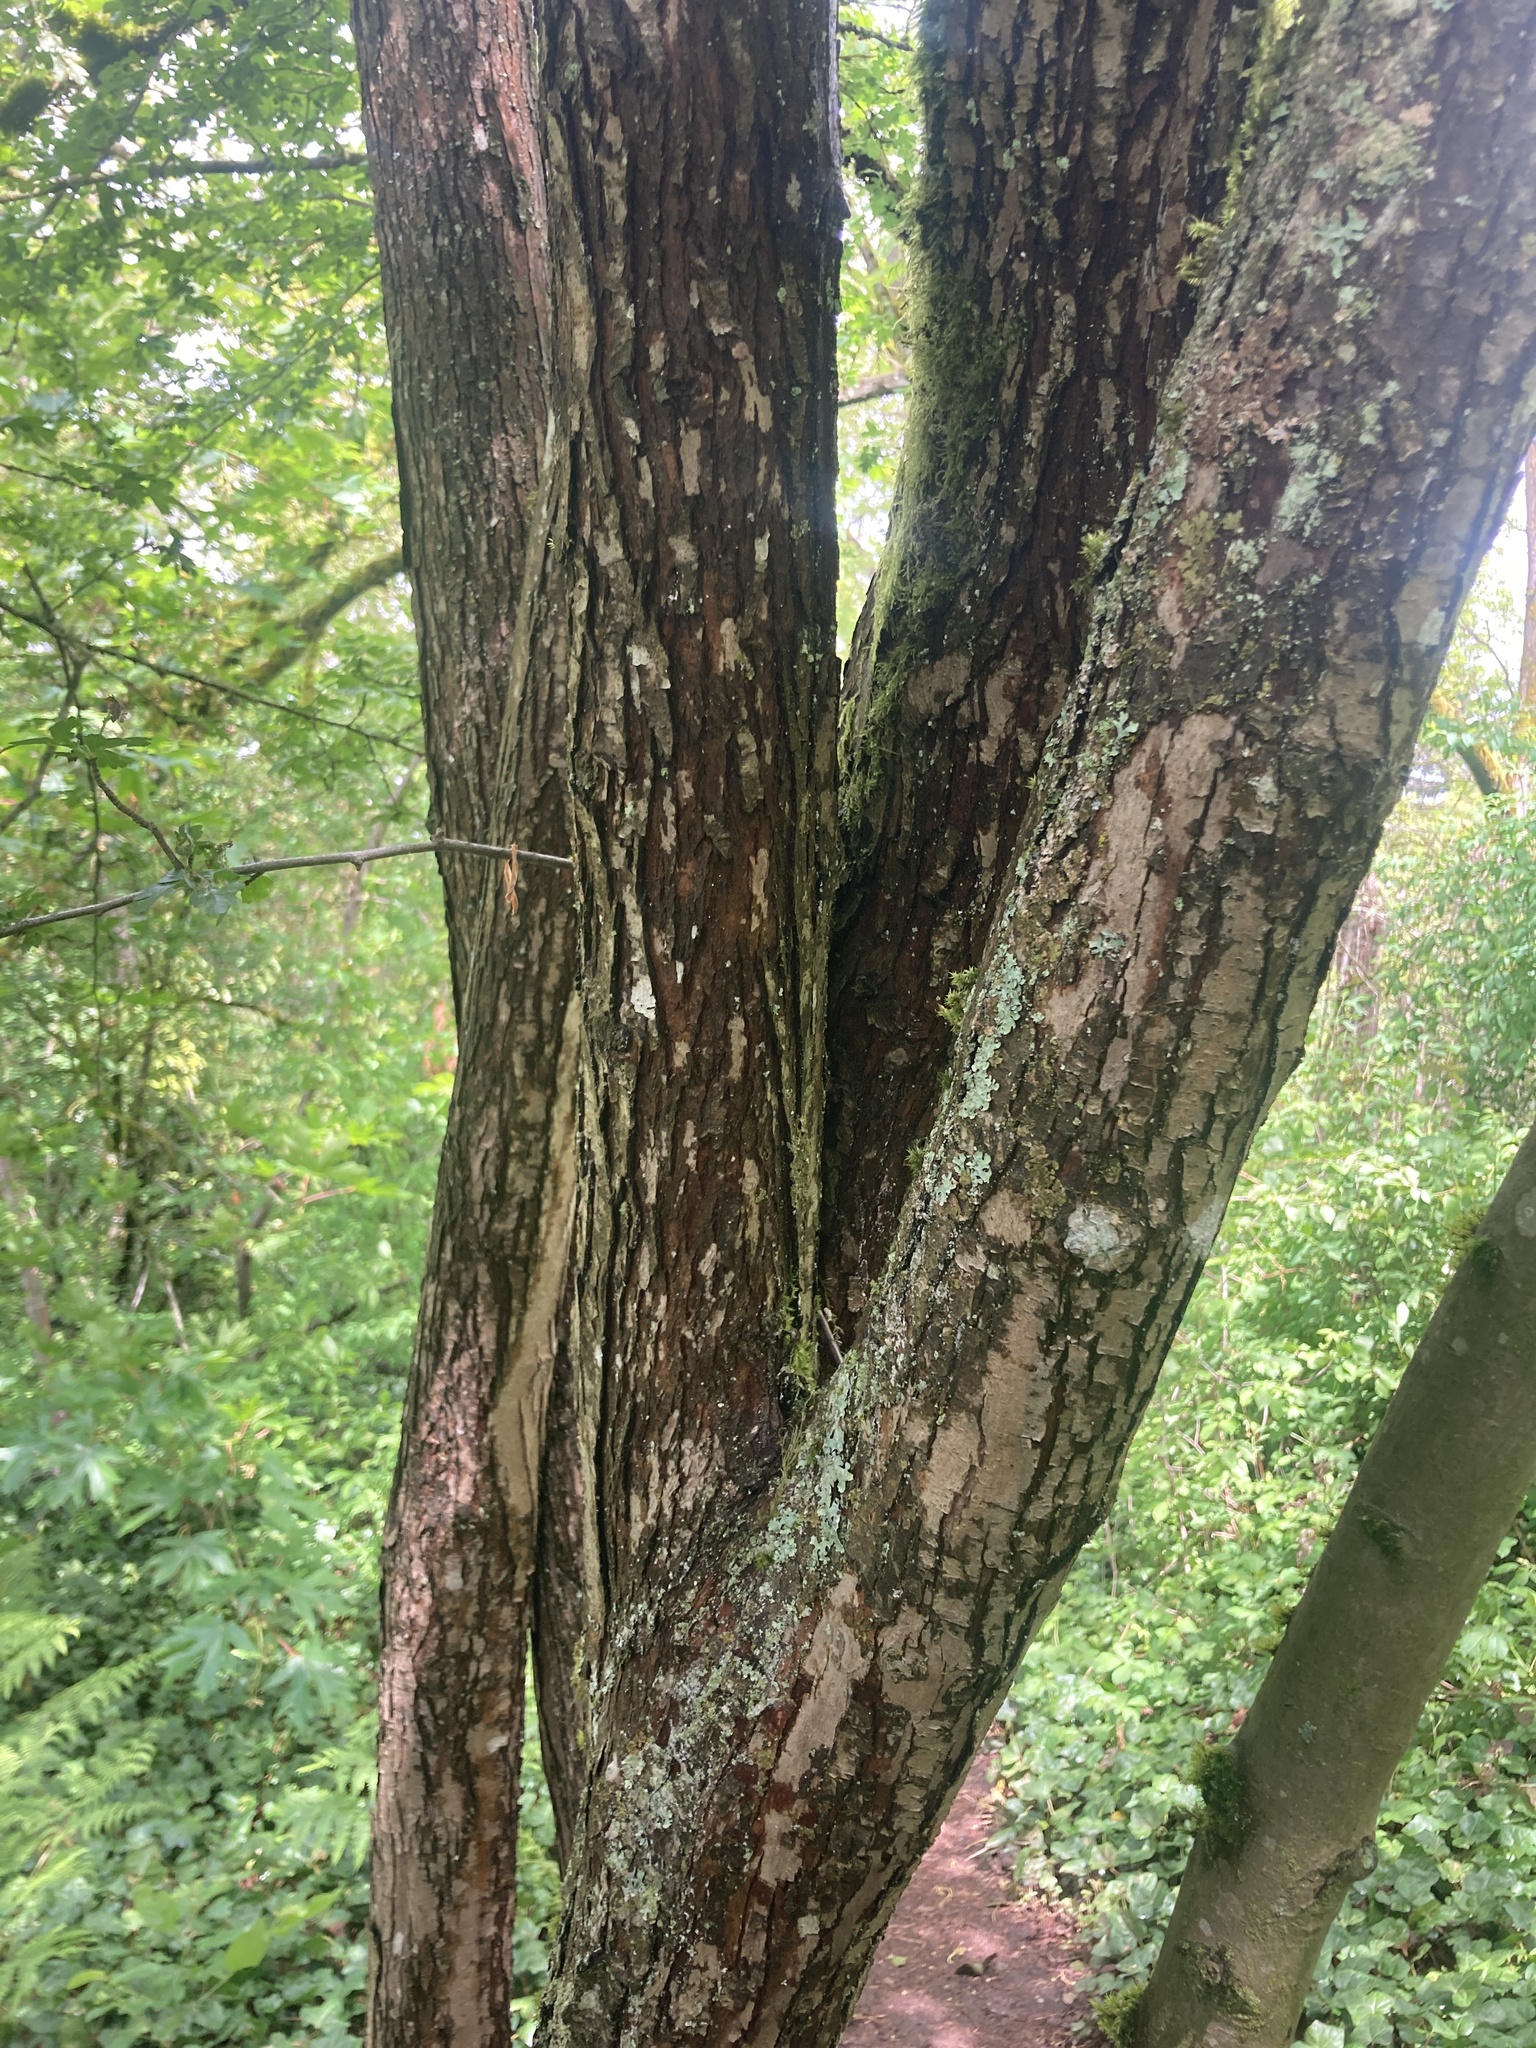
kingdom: Plantae
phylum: Tracheophyta
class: Magnoliopsida
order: Rosales
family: Rosaceae
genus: Crataegus
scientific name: Crataegus monogyna
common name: Hawthorn
